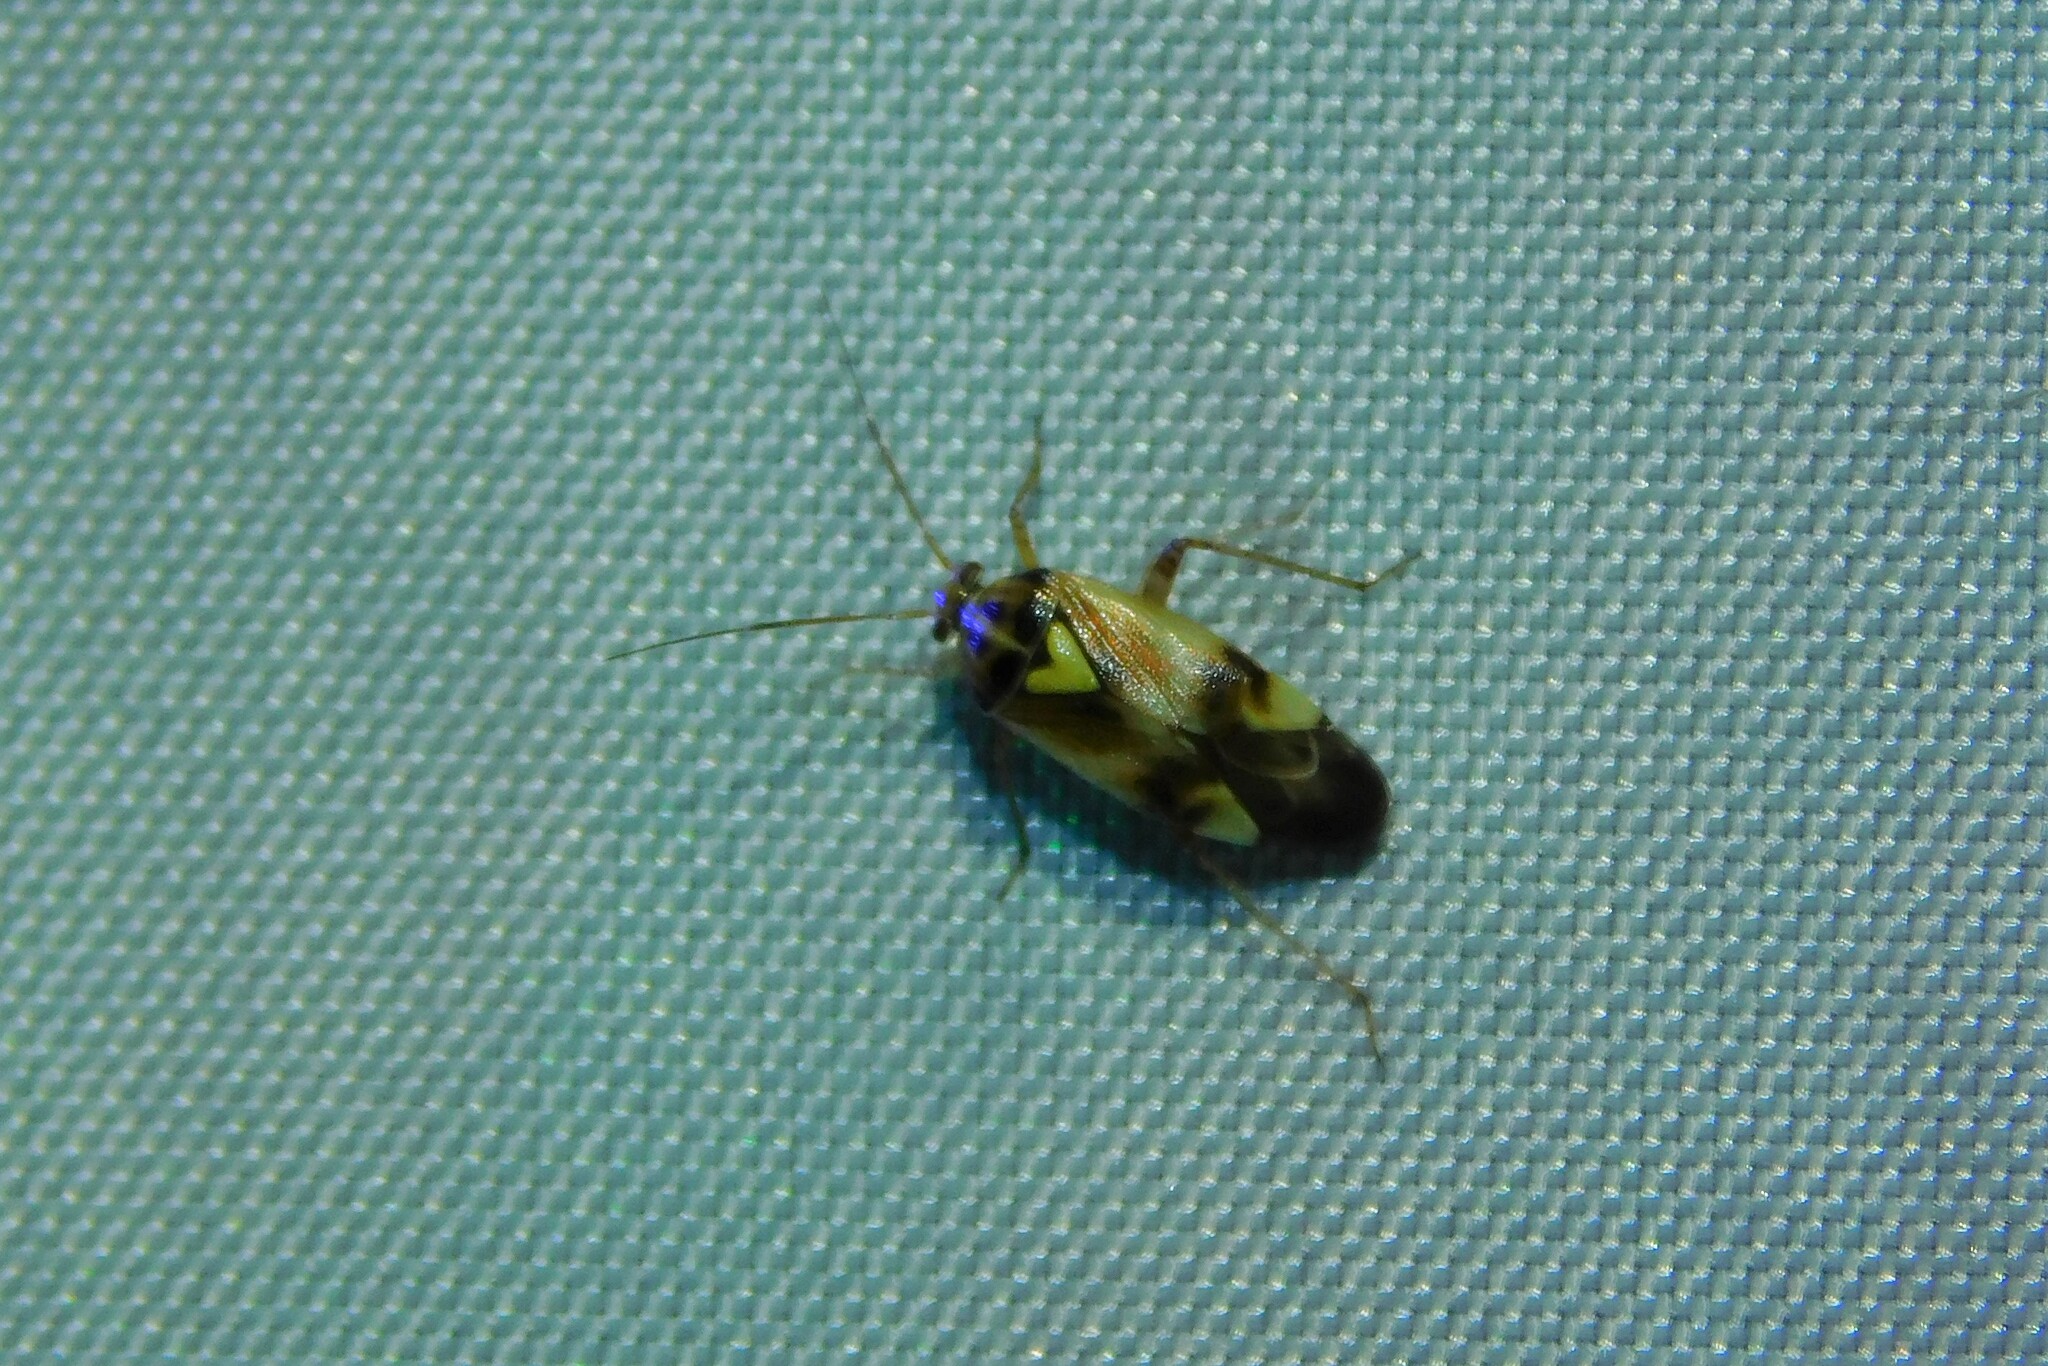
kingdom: Animalia
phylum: Arthropoda
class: Insecta
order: Hemiptera
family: Miridae
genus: Lygus
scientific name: Lygus pratensis
